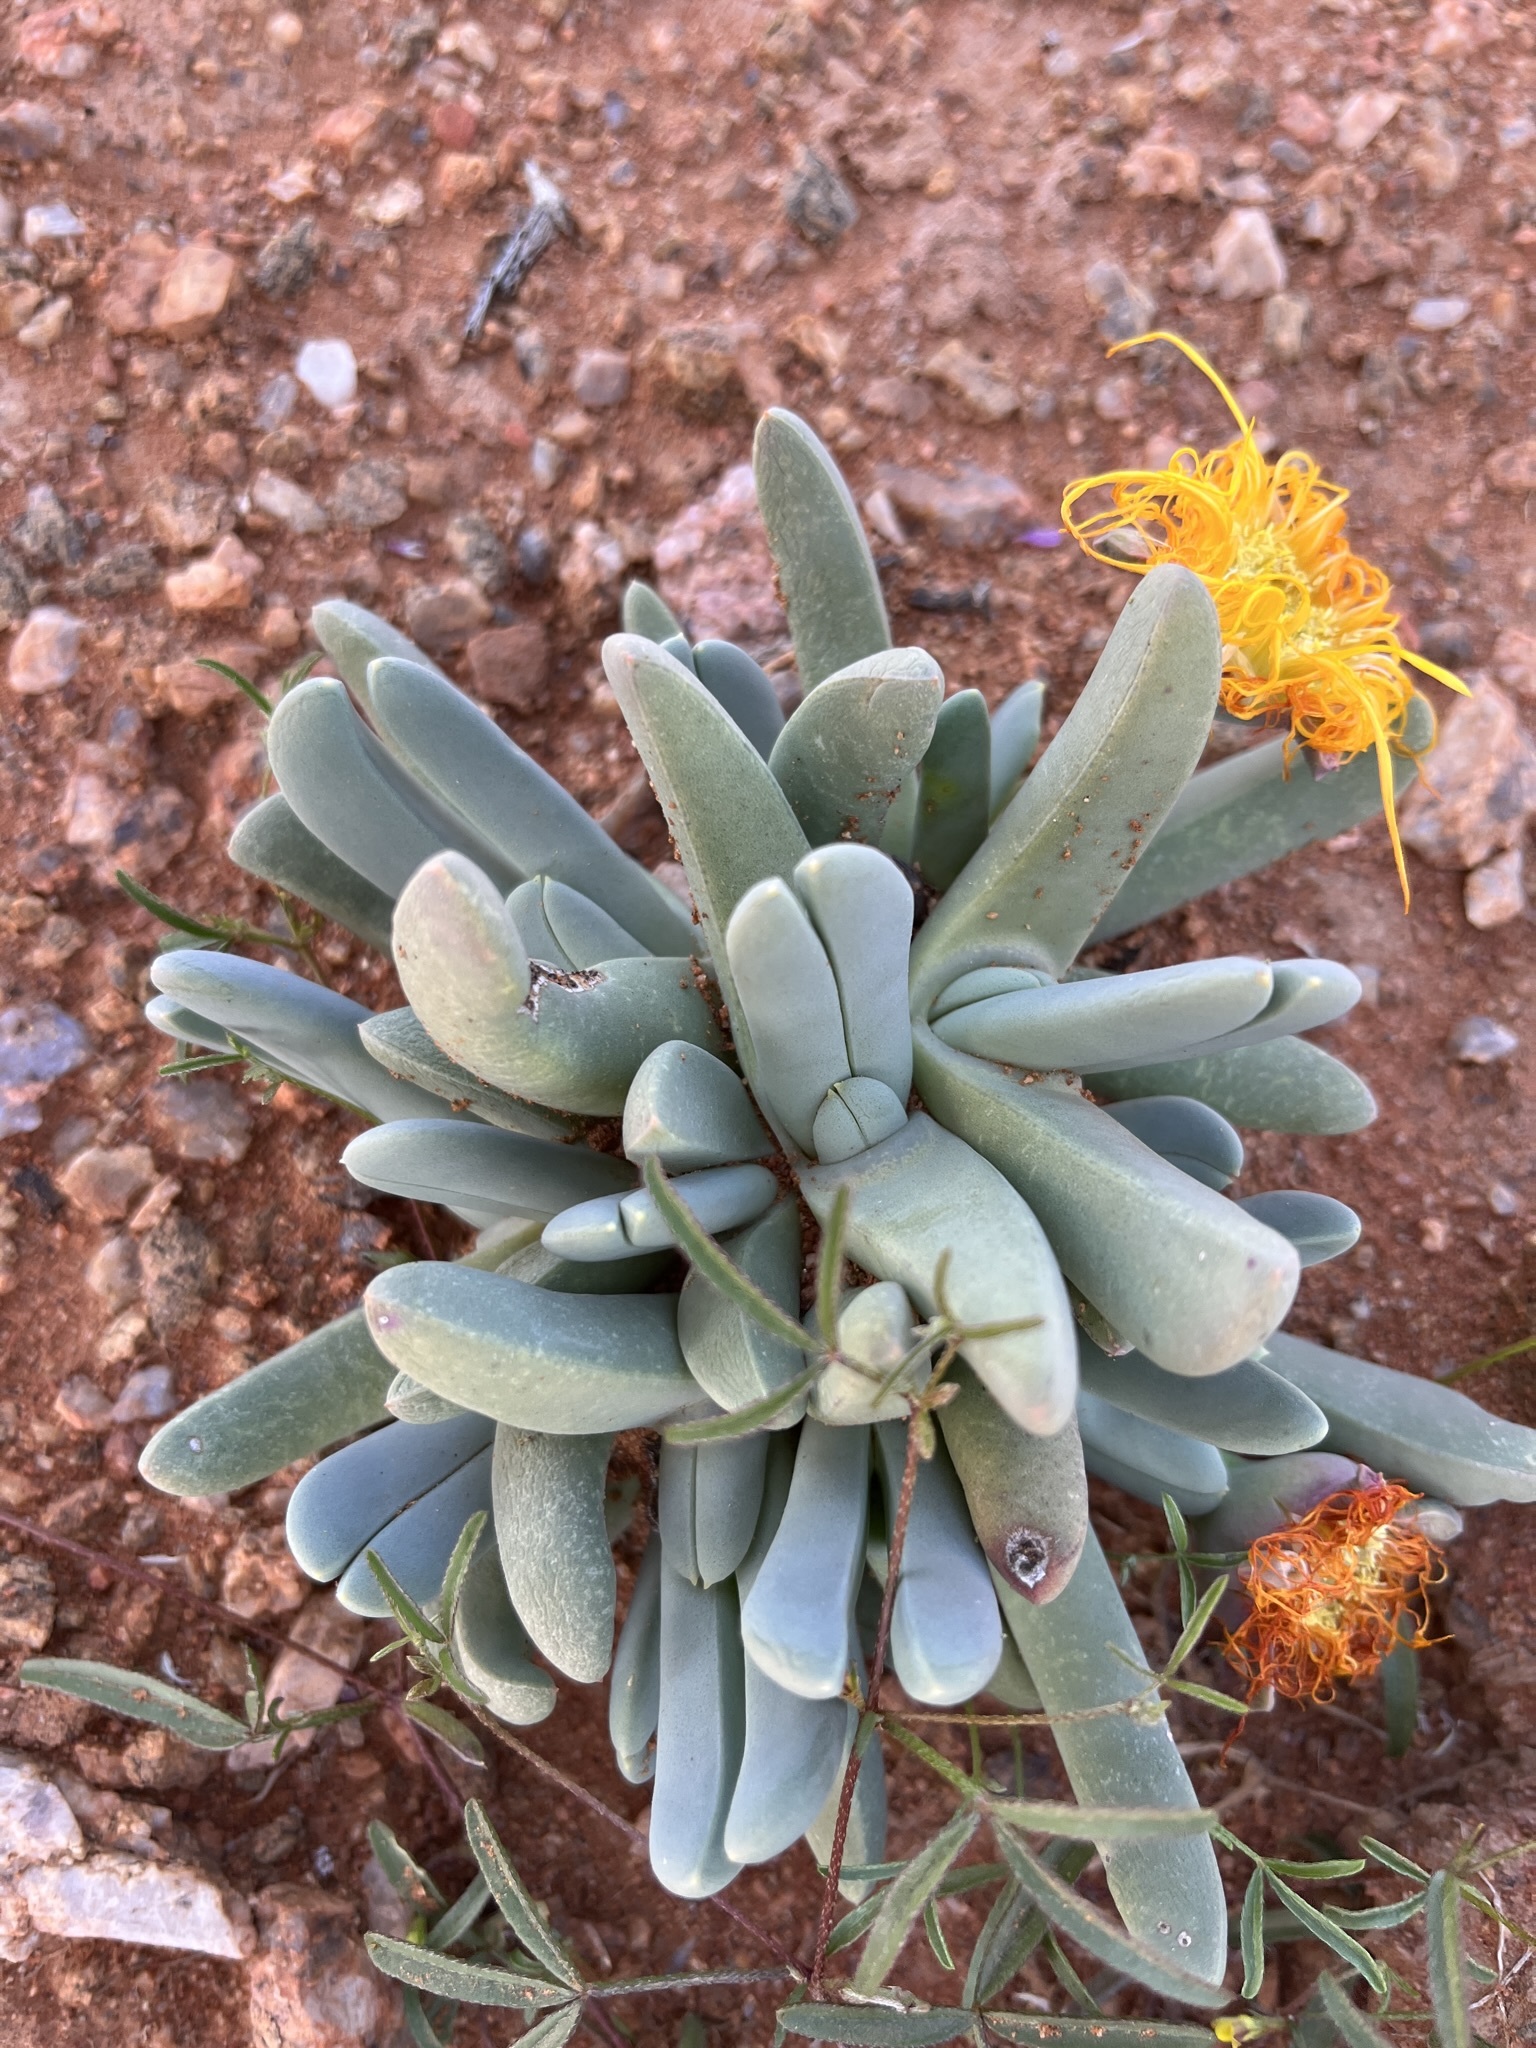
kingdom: Plantae
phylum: Tracheophyta
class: Magnoliopsida
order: Caryophyllales
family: Aizoaceae
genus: Cheiridopsis
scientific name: Cheiridopsis robusta
